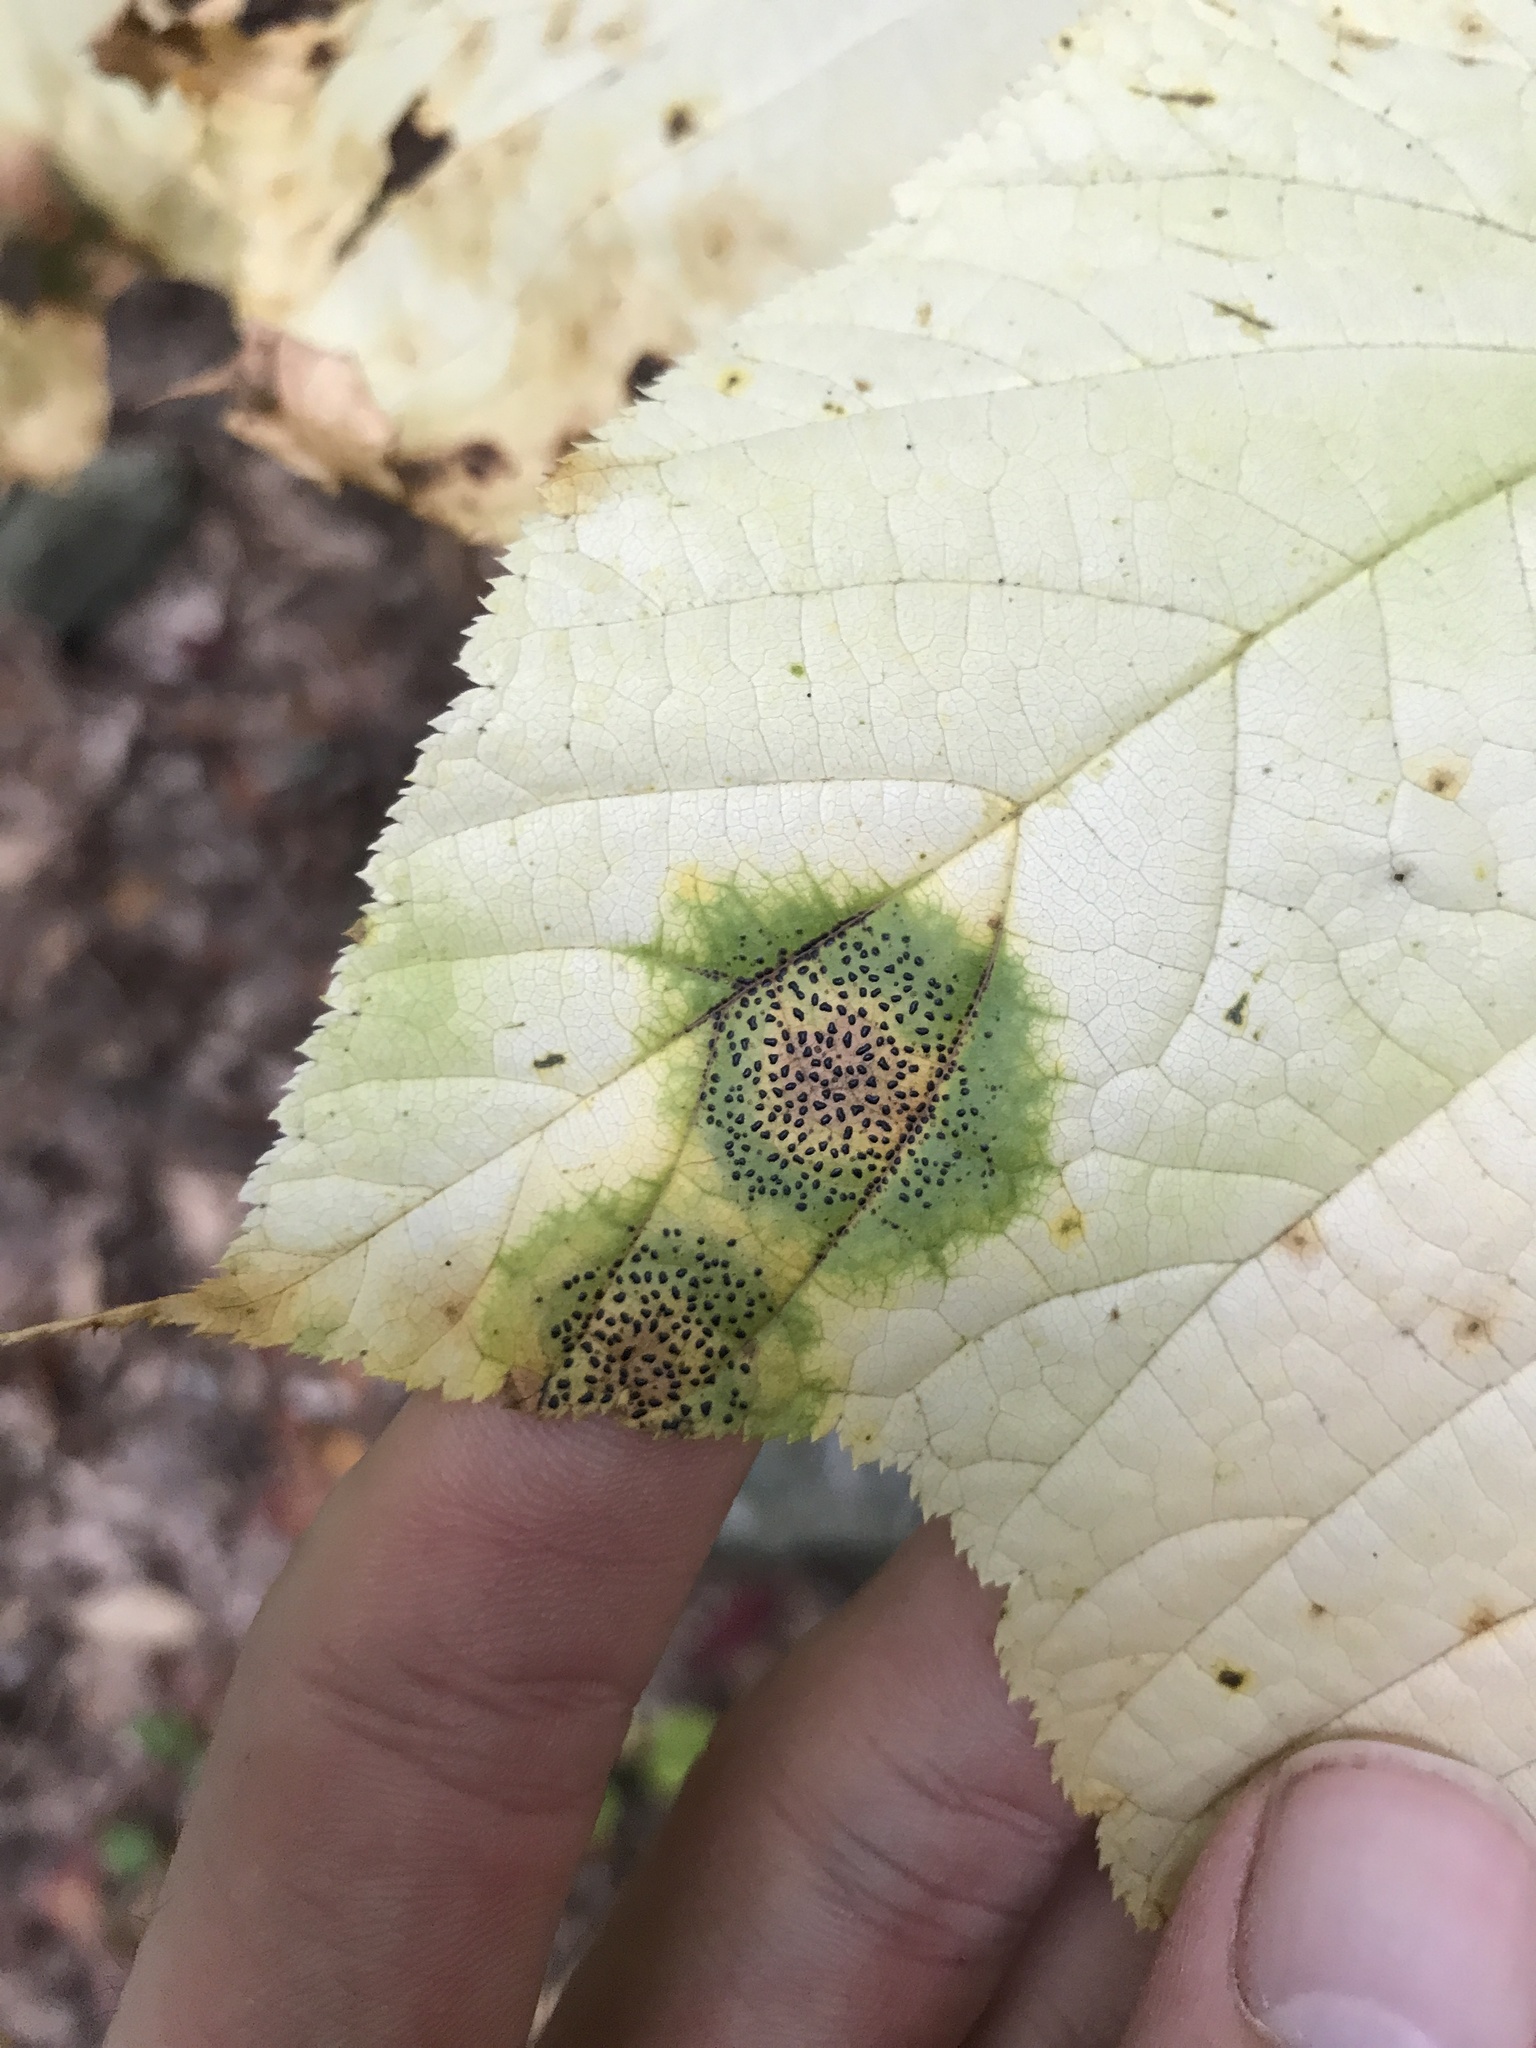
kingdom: Fungi
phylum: Ascomycota
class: Leotiomycetes
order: Rhytismatales
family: Rhytismataceae
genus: Rhytisma
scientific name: Rhytisma punctatum
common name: Speckled tar spot
